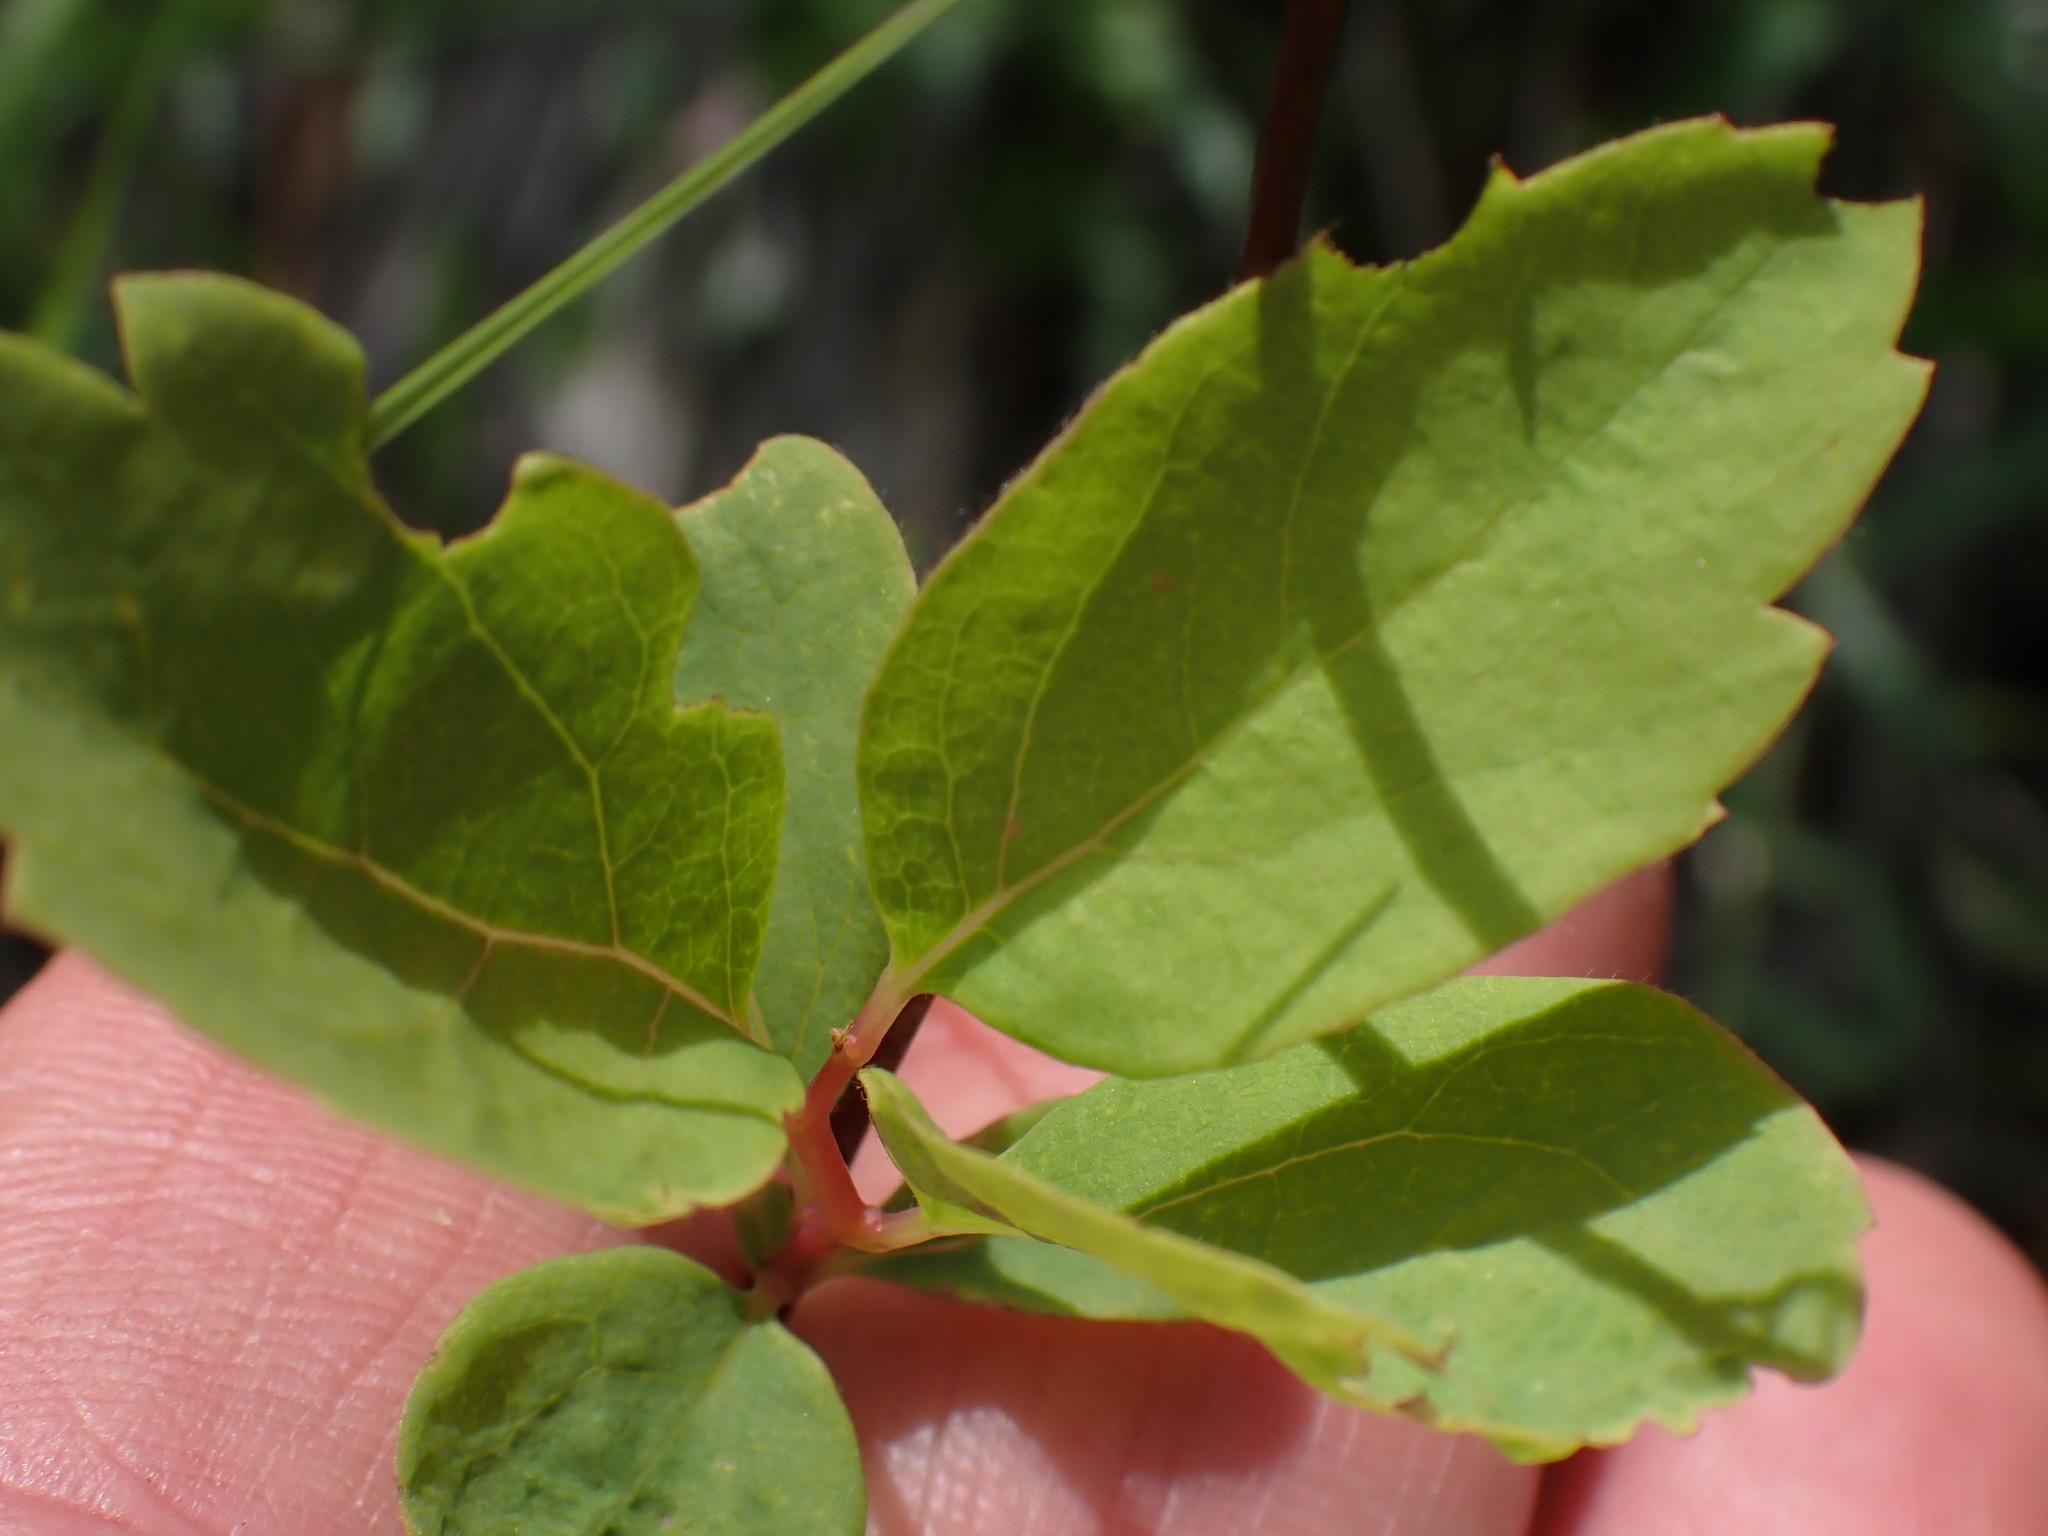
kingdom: Plantae
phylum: Tracheophyta
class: Magnoliopsida
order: Rosales
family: Rosaceae
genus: Spiraea
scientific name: Spiraea lucida
